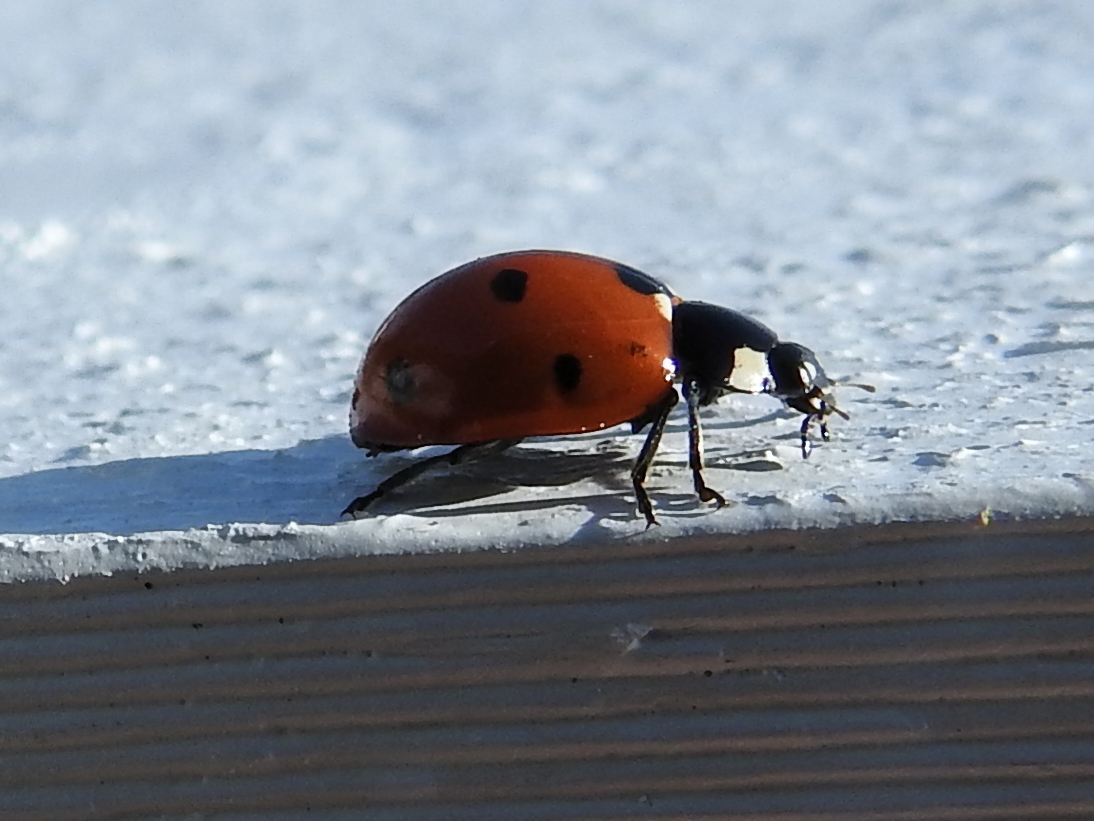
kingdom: Animalia
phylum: Arthropoda
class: Insecta
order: Coleoptera
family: Coccinellidae
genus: Coccinella
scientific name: Coccinella septempunctata
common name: Sevenspotted lady beetle
